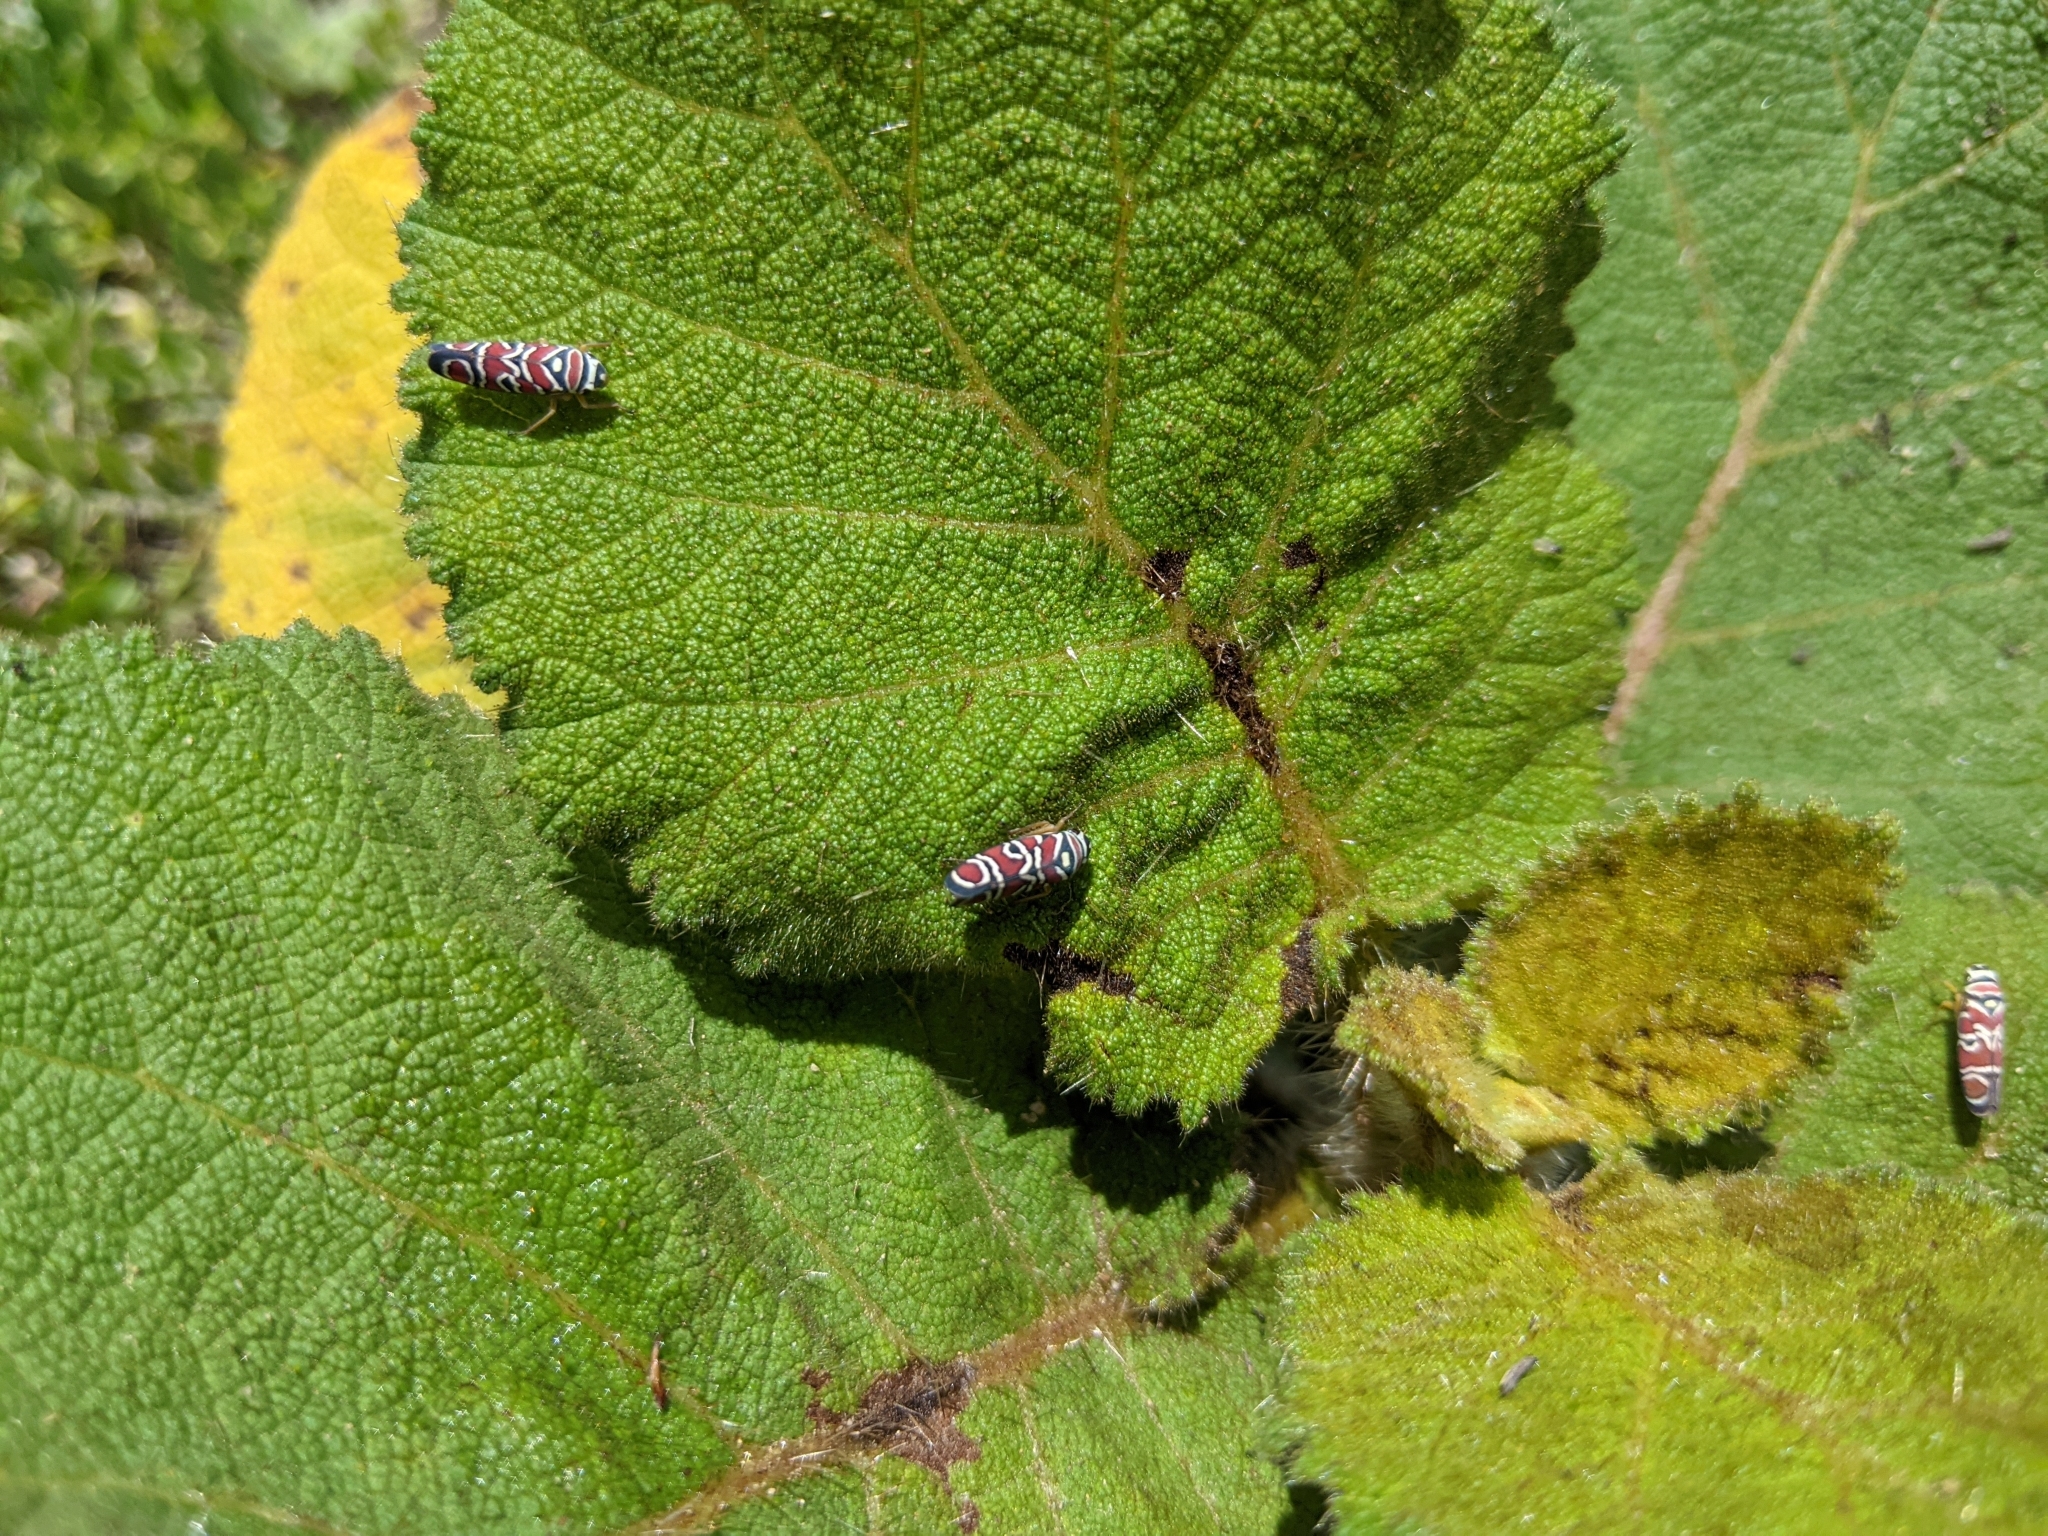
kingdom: Animalia
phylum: Arthropoda
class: Insecta
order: Hemiptera
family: Cicadellidae
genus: Agrosoma
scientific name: Agrosoma placetis
